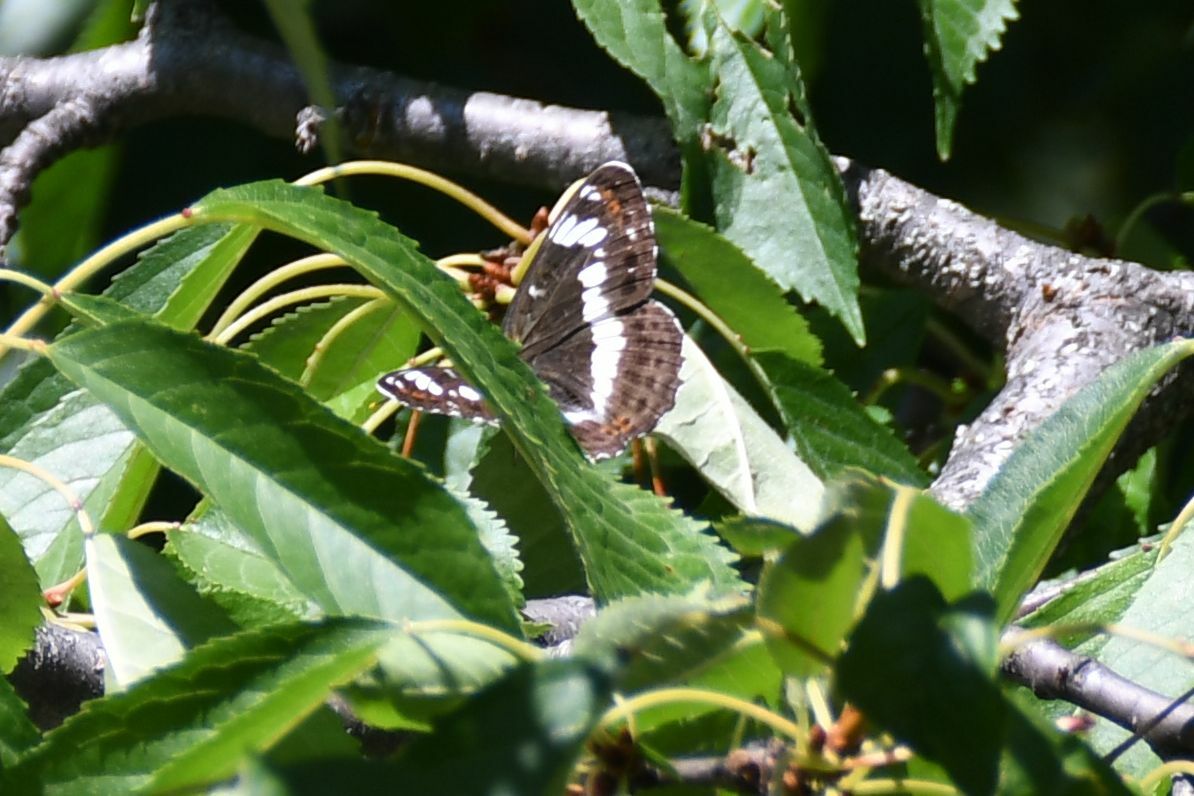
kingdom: Animalia
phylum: Arthropoda
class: Insecta
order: Lepidoptera
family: Nymphalidae
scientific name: Nymphalidae
